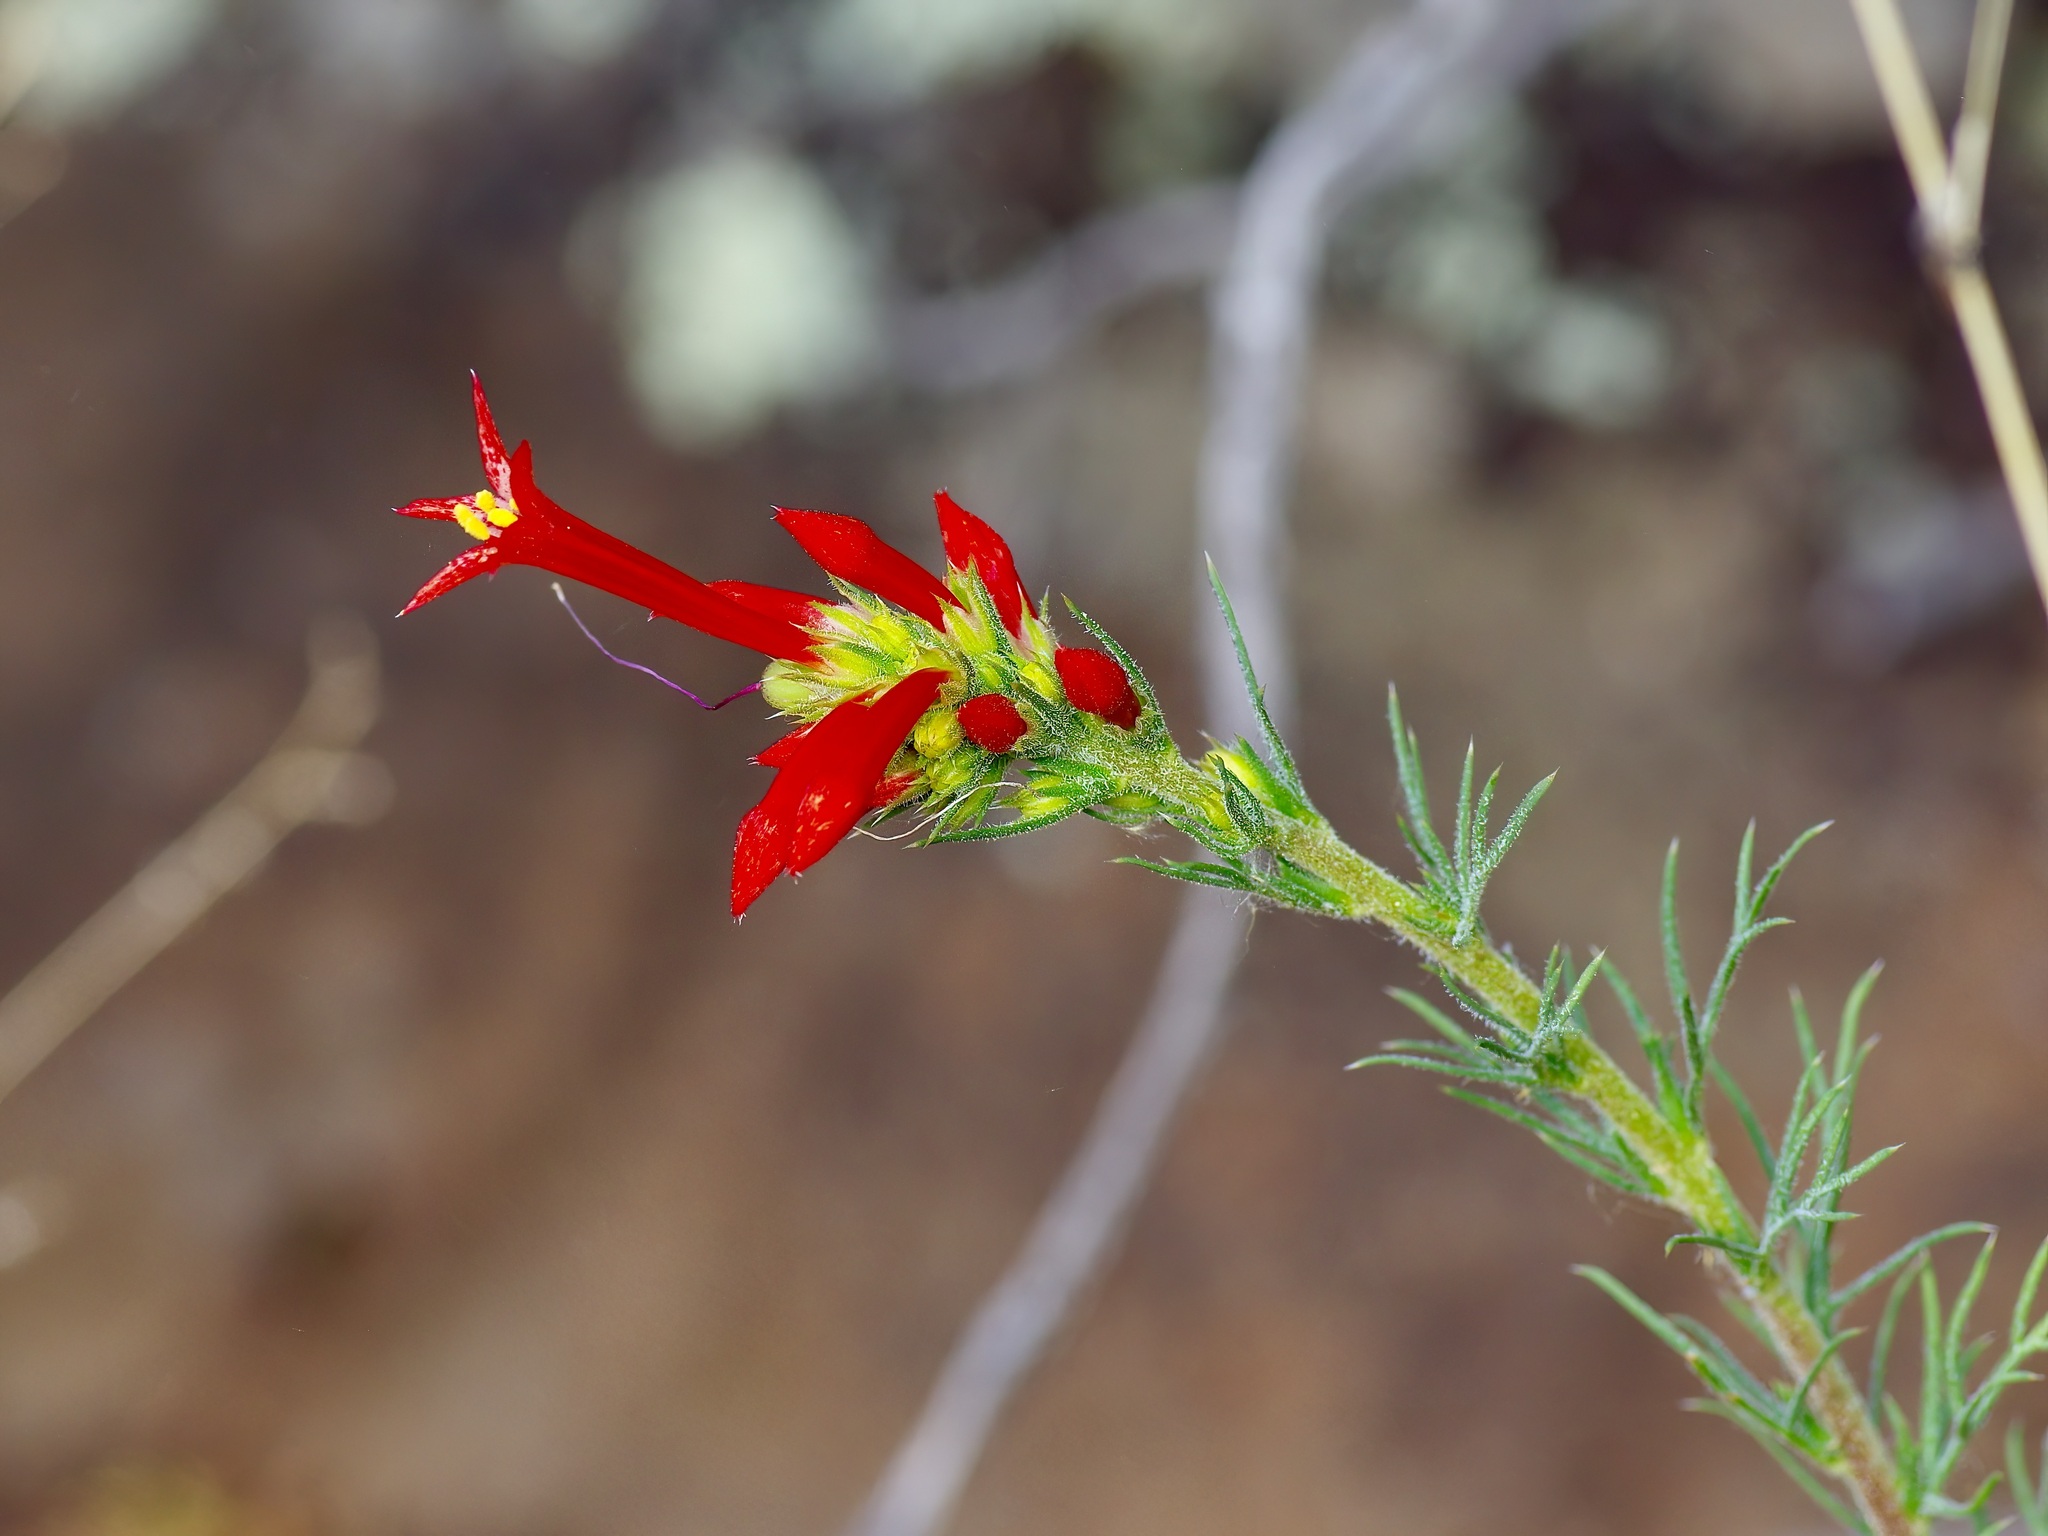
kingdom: Plantae
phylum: Tracheophyta
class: Magnoliopsida
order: Ericales
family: Polemoniaceae
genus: Ipomopsis
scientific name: Ipomopsis aggregata
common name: Scarlet gilia
